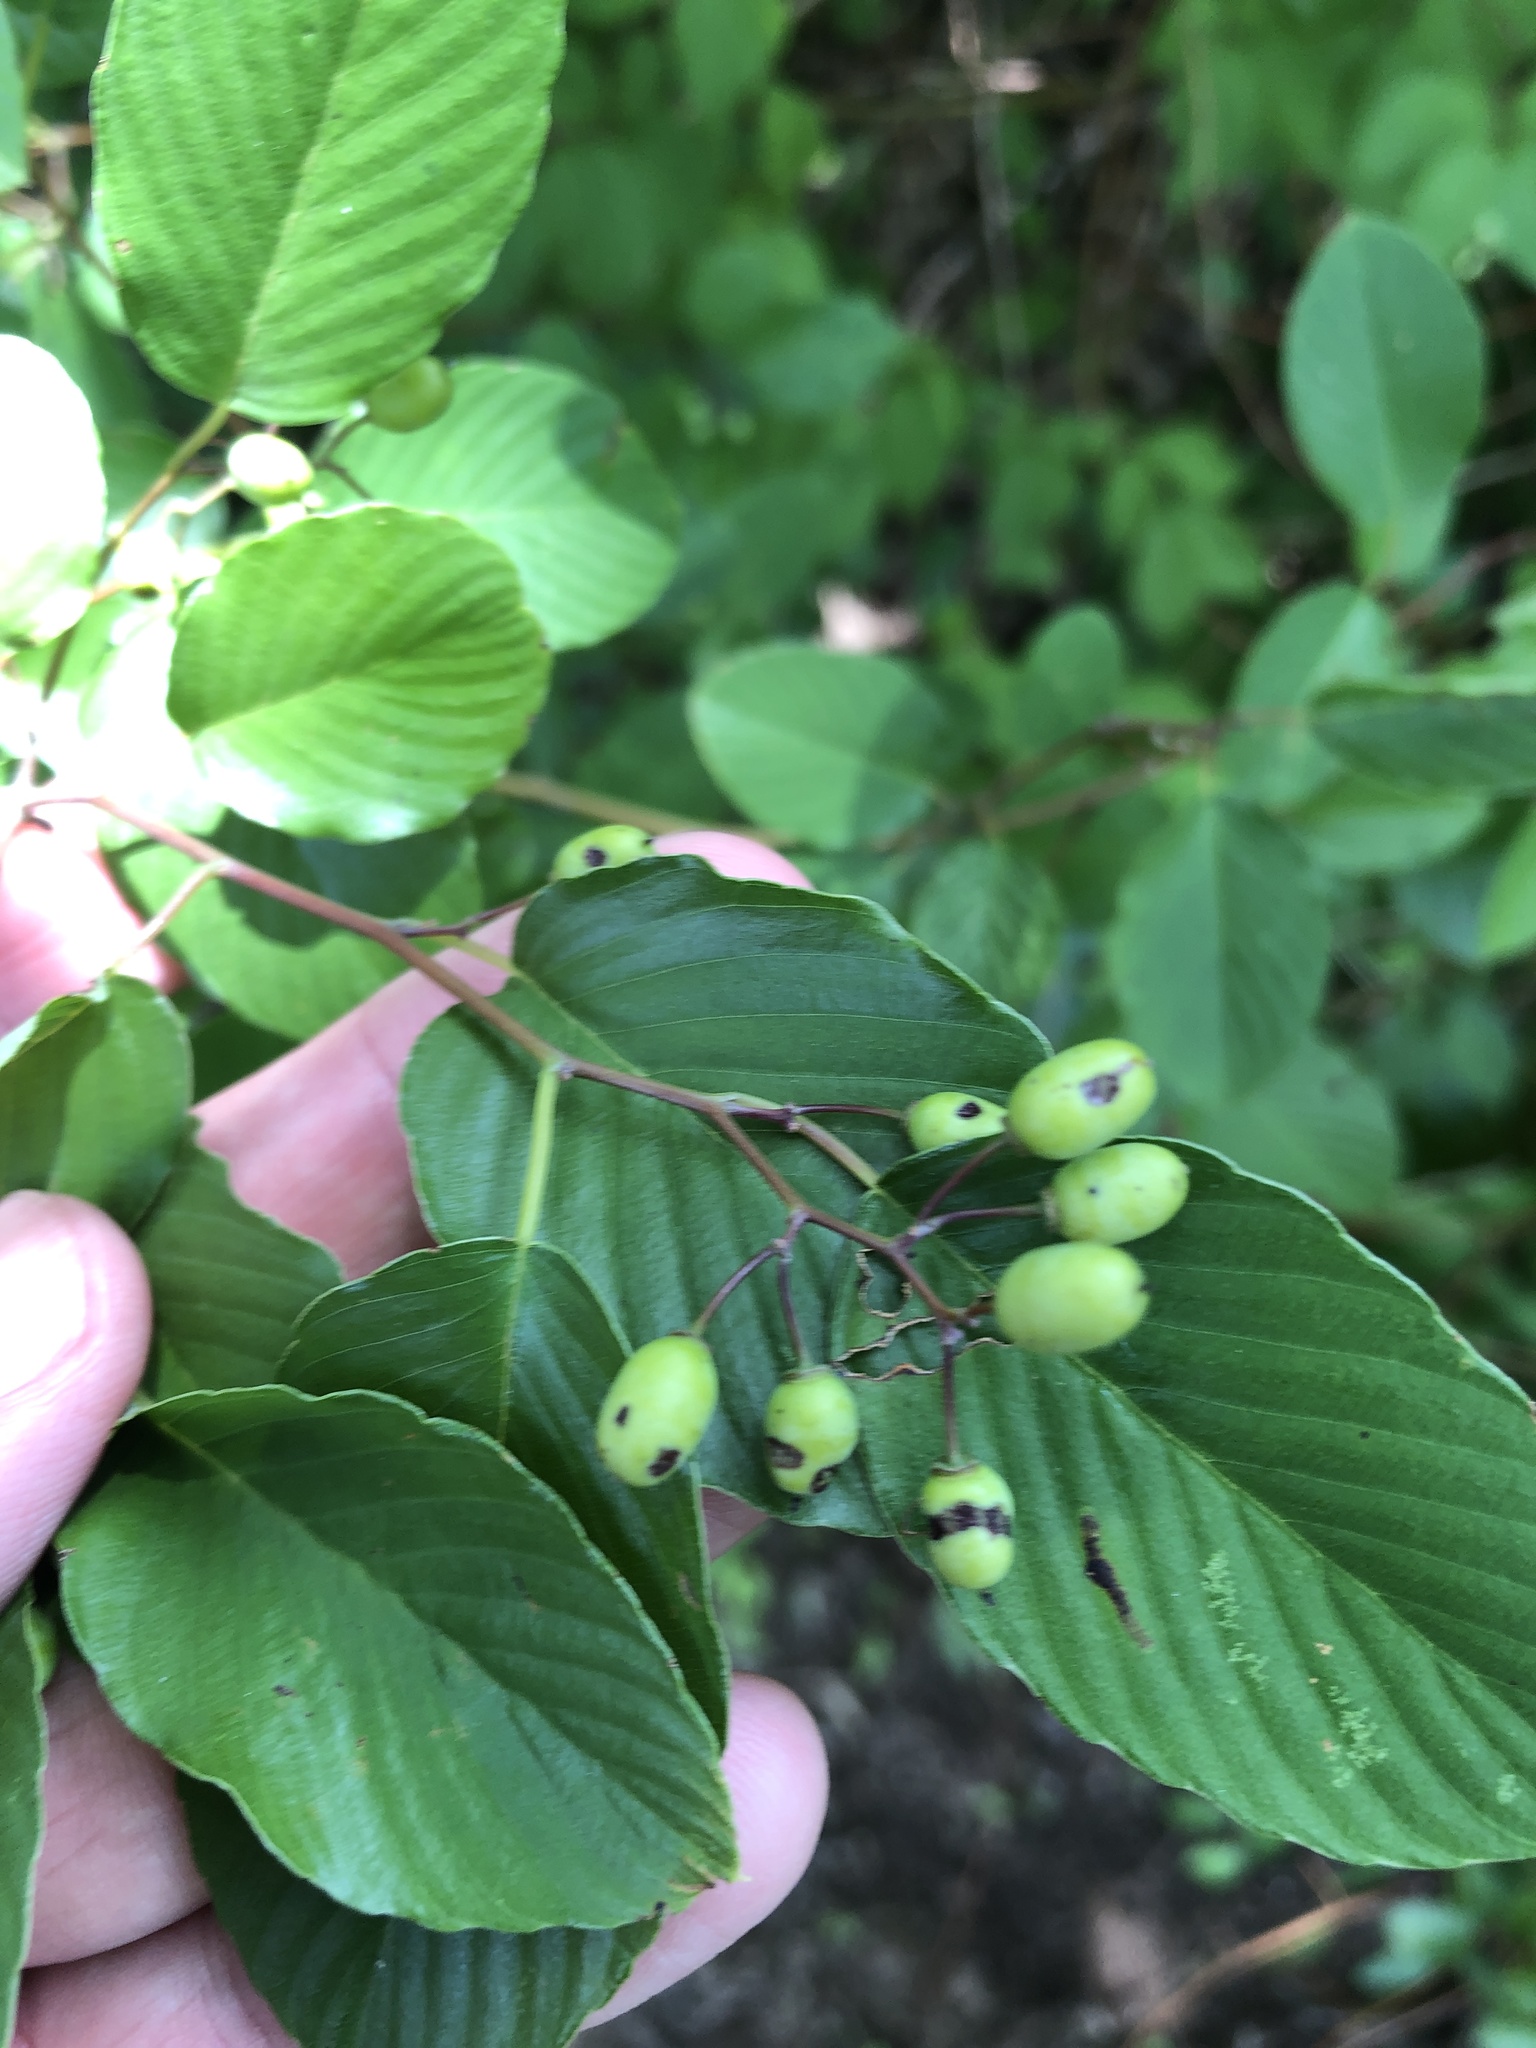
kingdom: Plantae
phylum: Tracheophyta
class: Magnoliopsida
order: Rosales
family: Rhamnaceae
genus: Berchemia
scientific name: Berchemia scandens
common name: Supplejack
